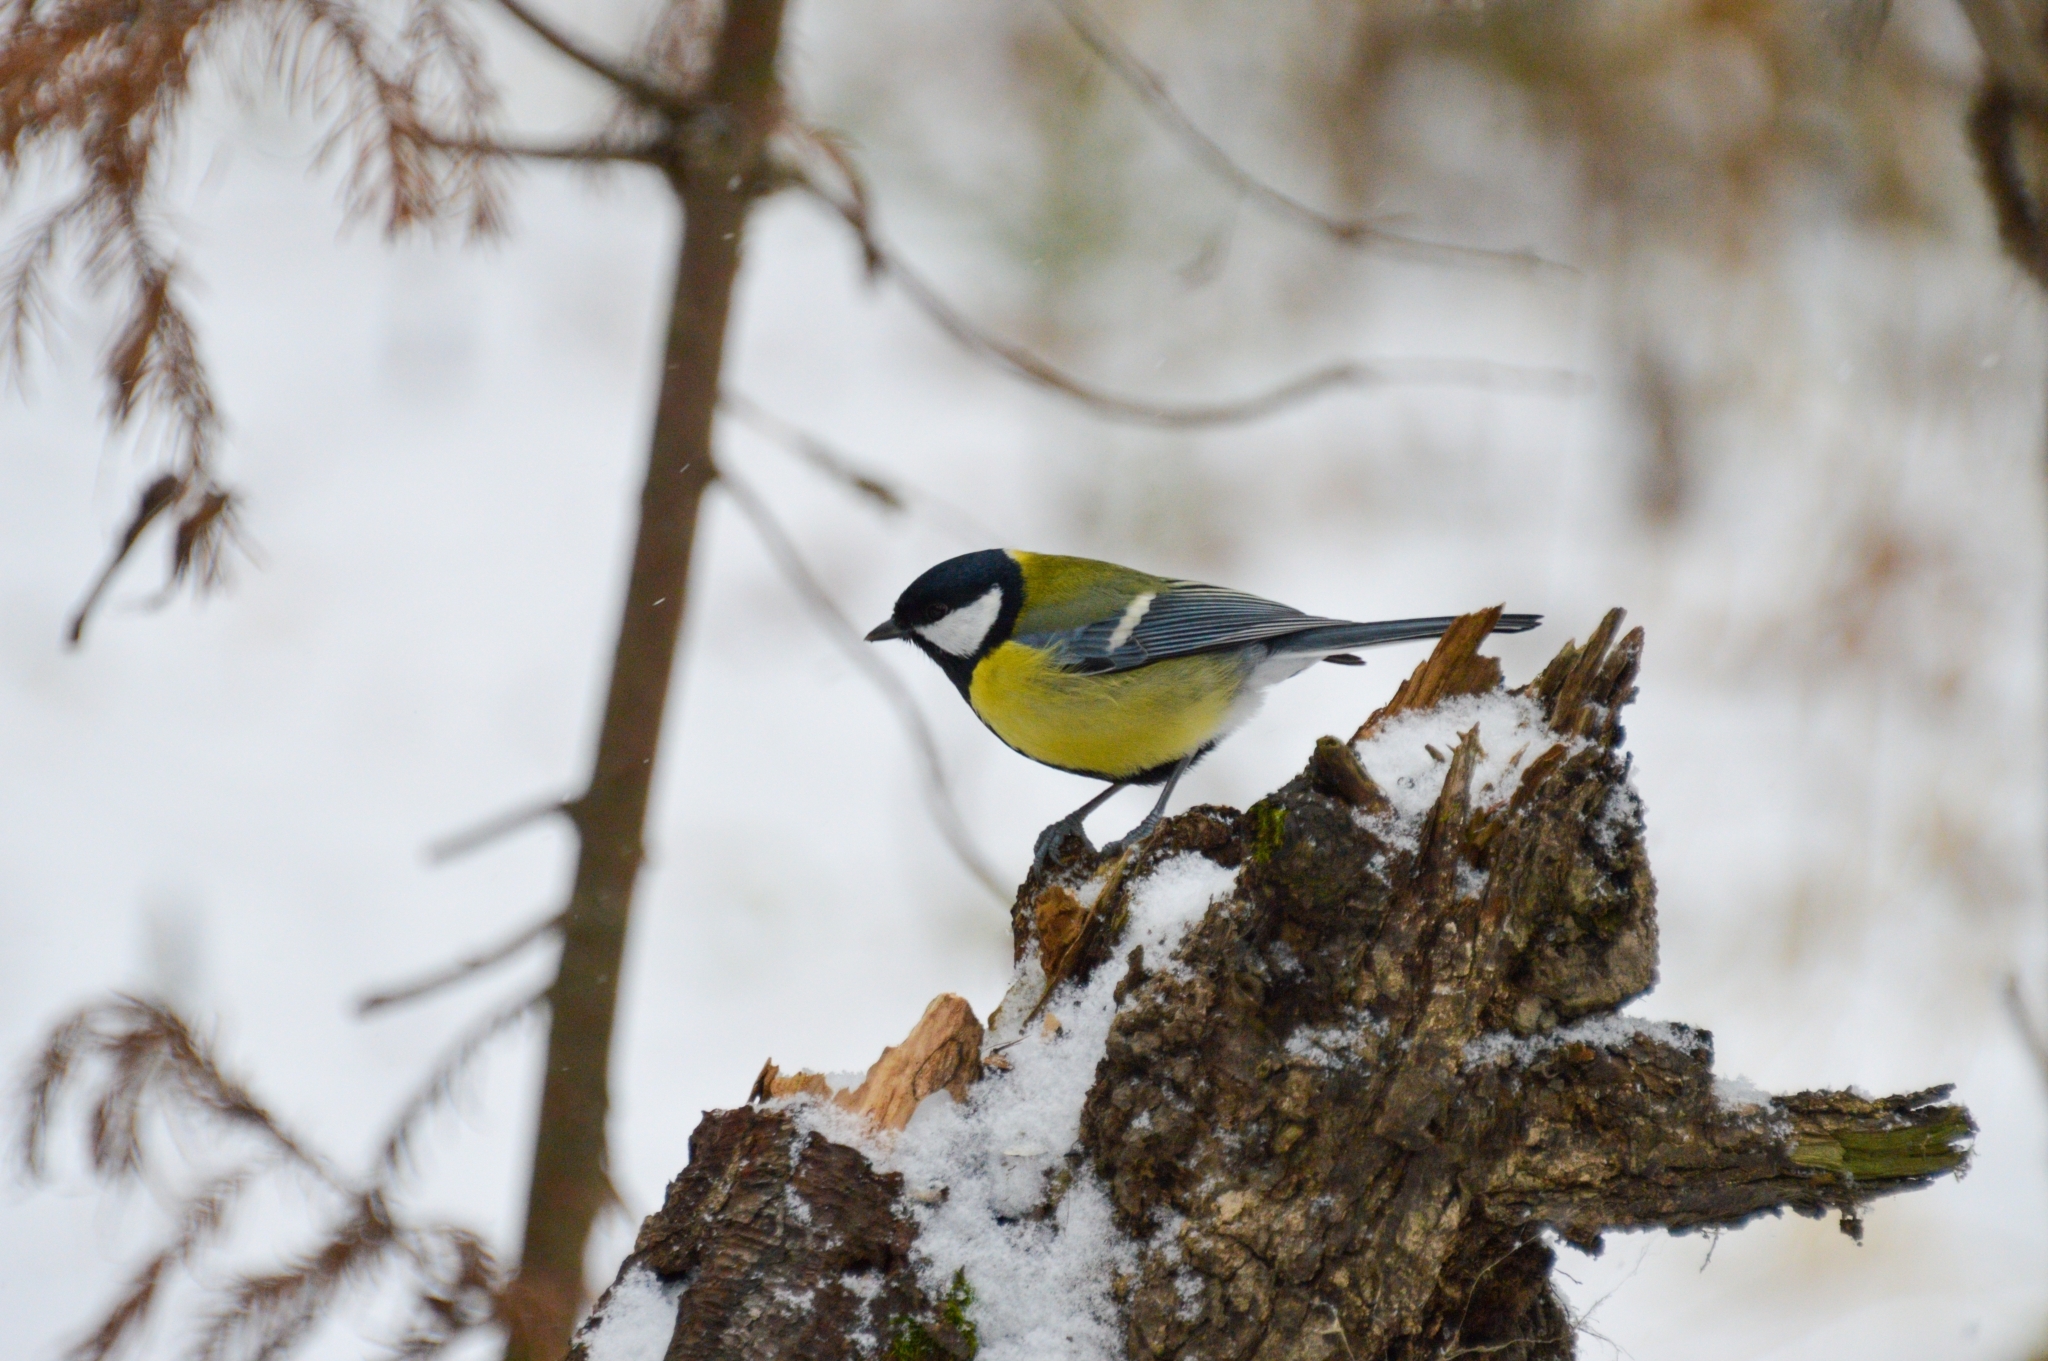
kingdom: Animalia
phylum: Chordata
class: Aves
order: Passeriformes
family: Paridae
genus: Parus
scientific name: Parus major
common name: Great tit
